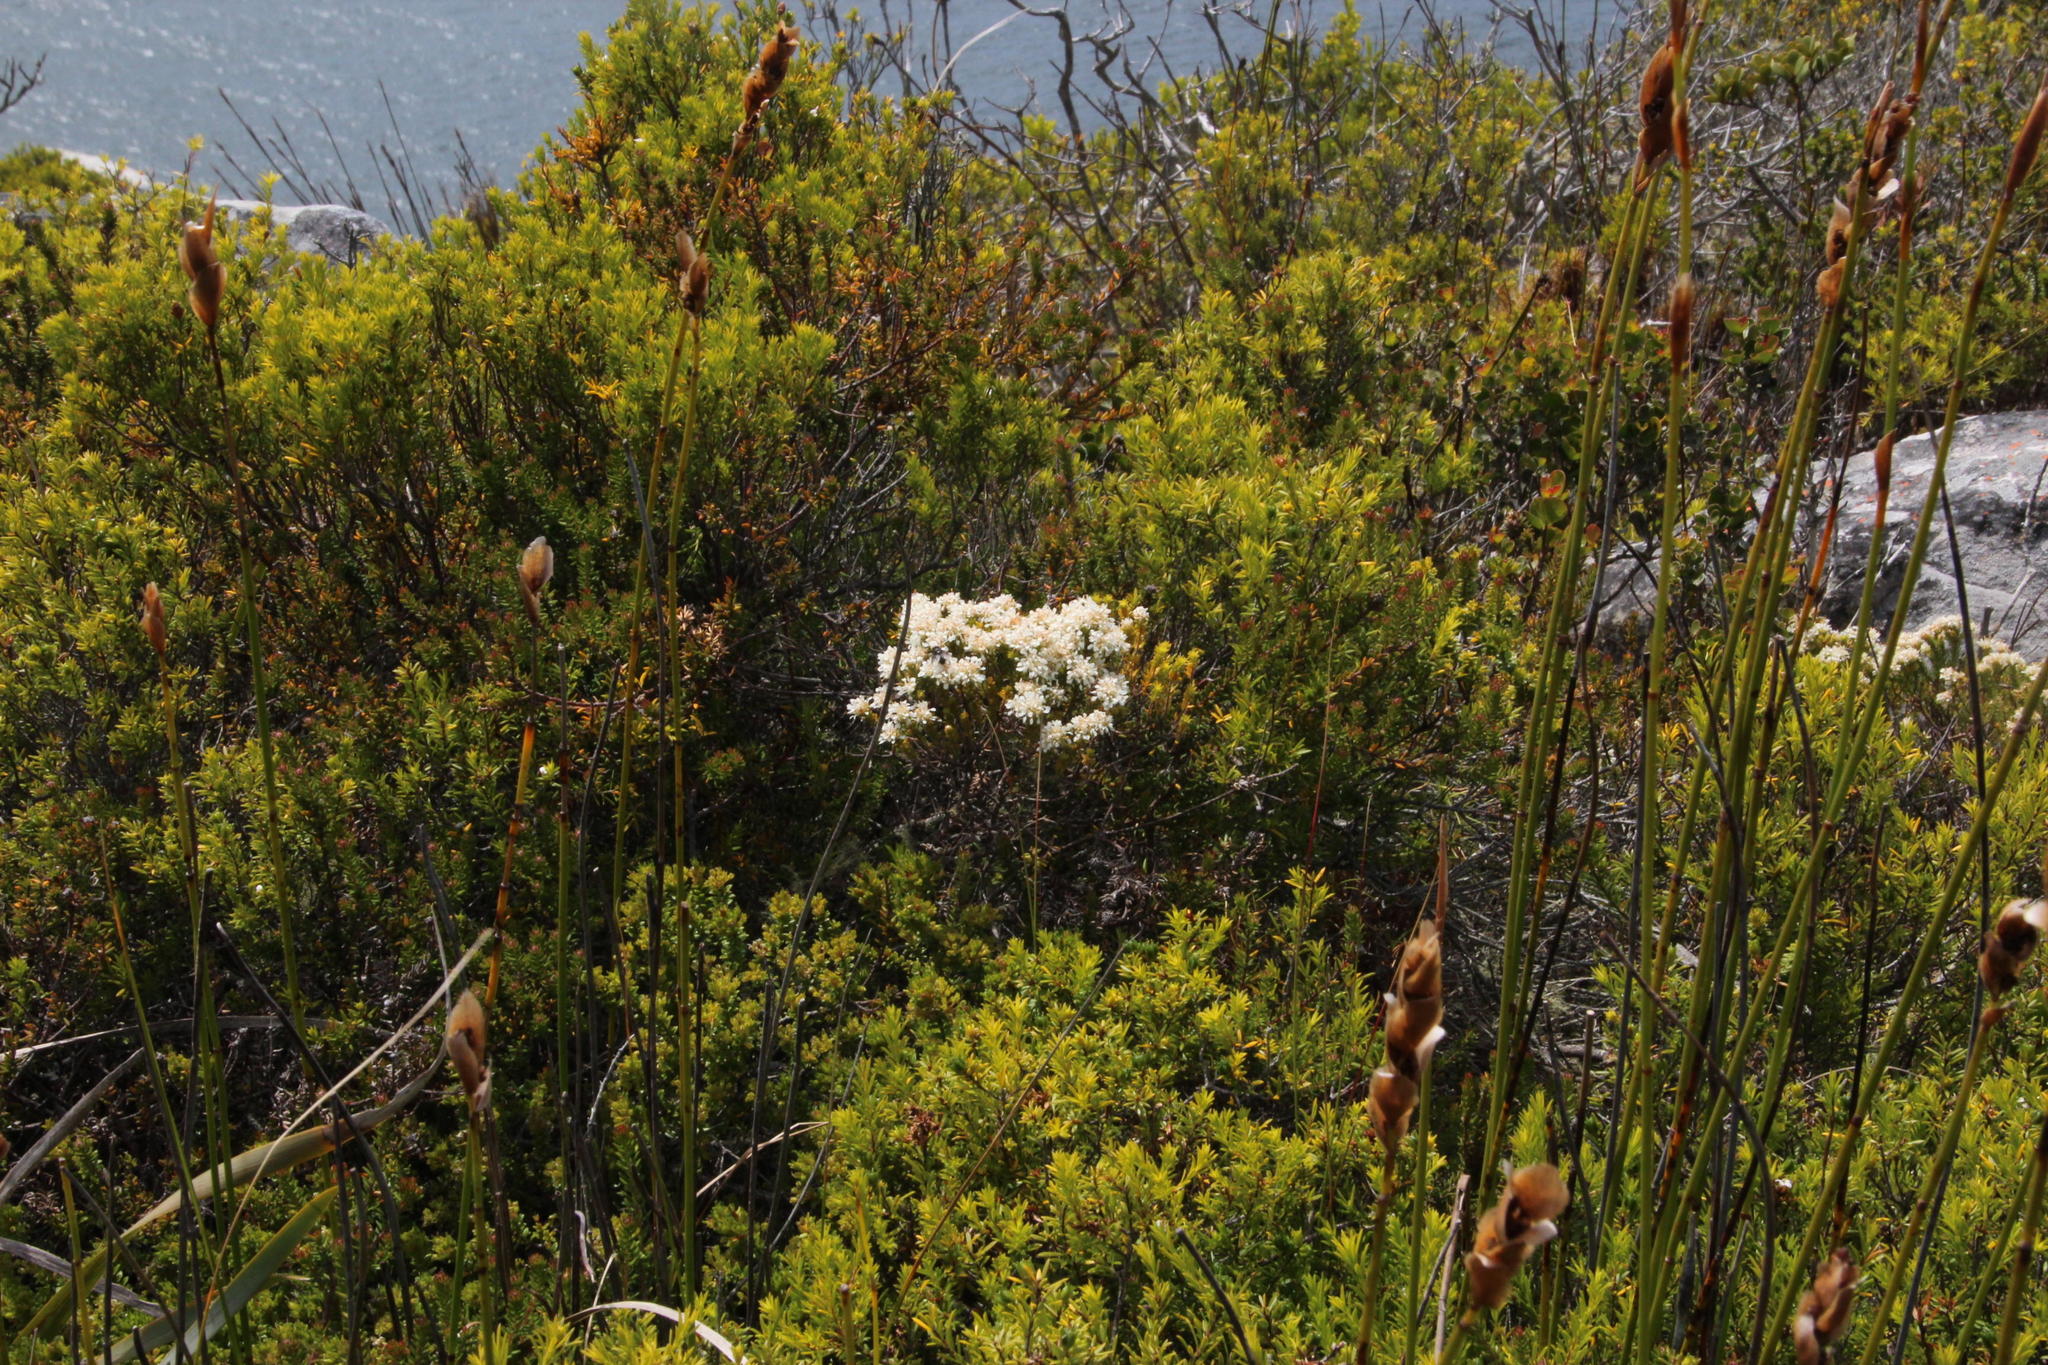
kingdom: Plantae
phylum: Tracheophyta
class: Magnoliopsida
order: Sapindales
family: Rutaceae
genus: Agathosma
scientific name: Agathosma imbricata
